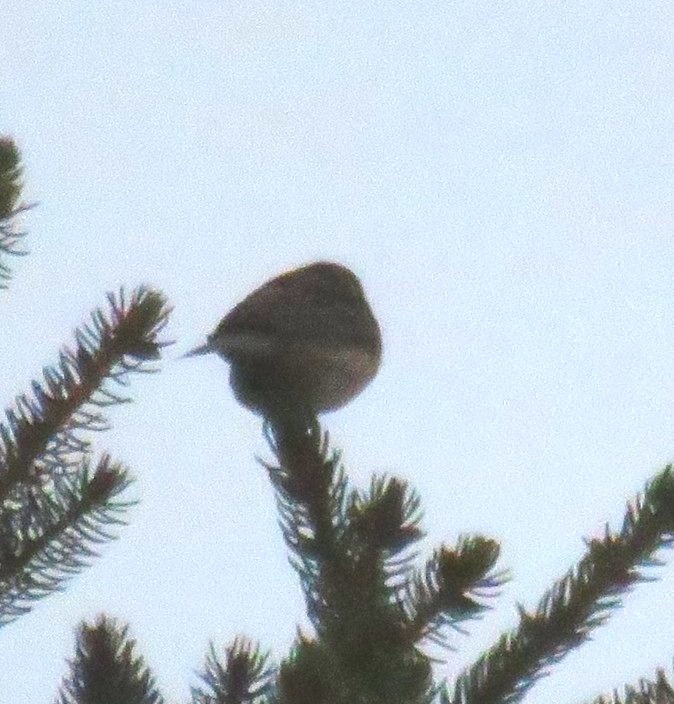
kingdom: Animalia
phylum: Chordata
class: Aves
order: Passeriformes
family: Passerellidae
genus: Junco
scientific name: Junco hyemalis
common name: Dark-eyed junco
